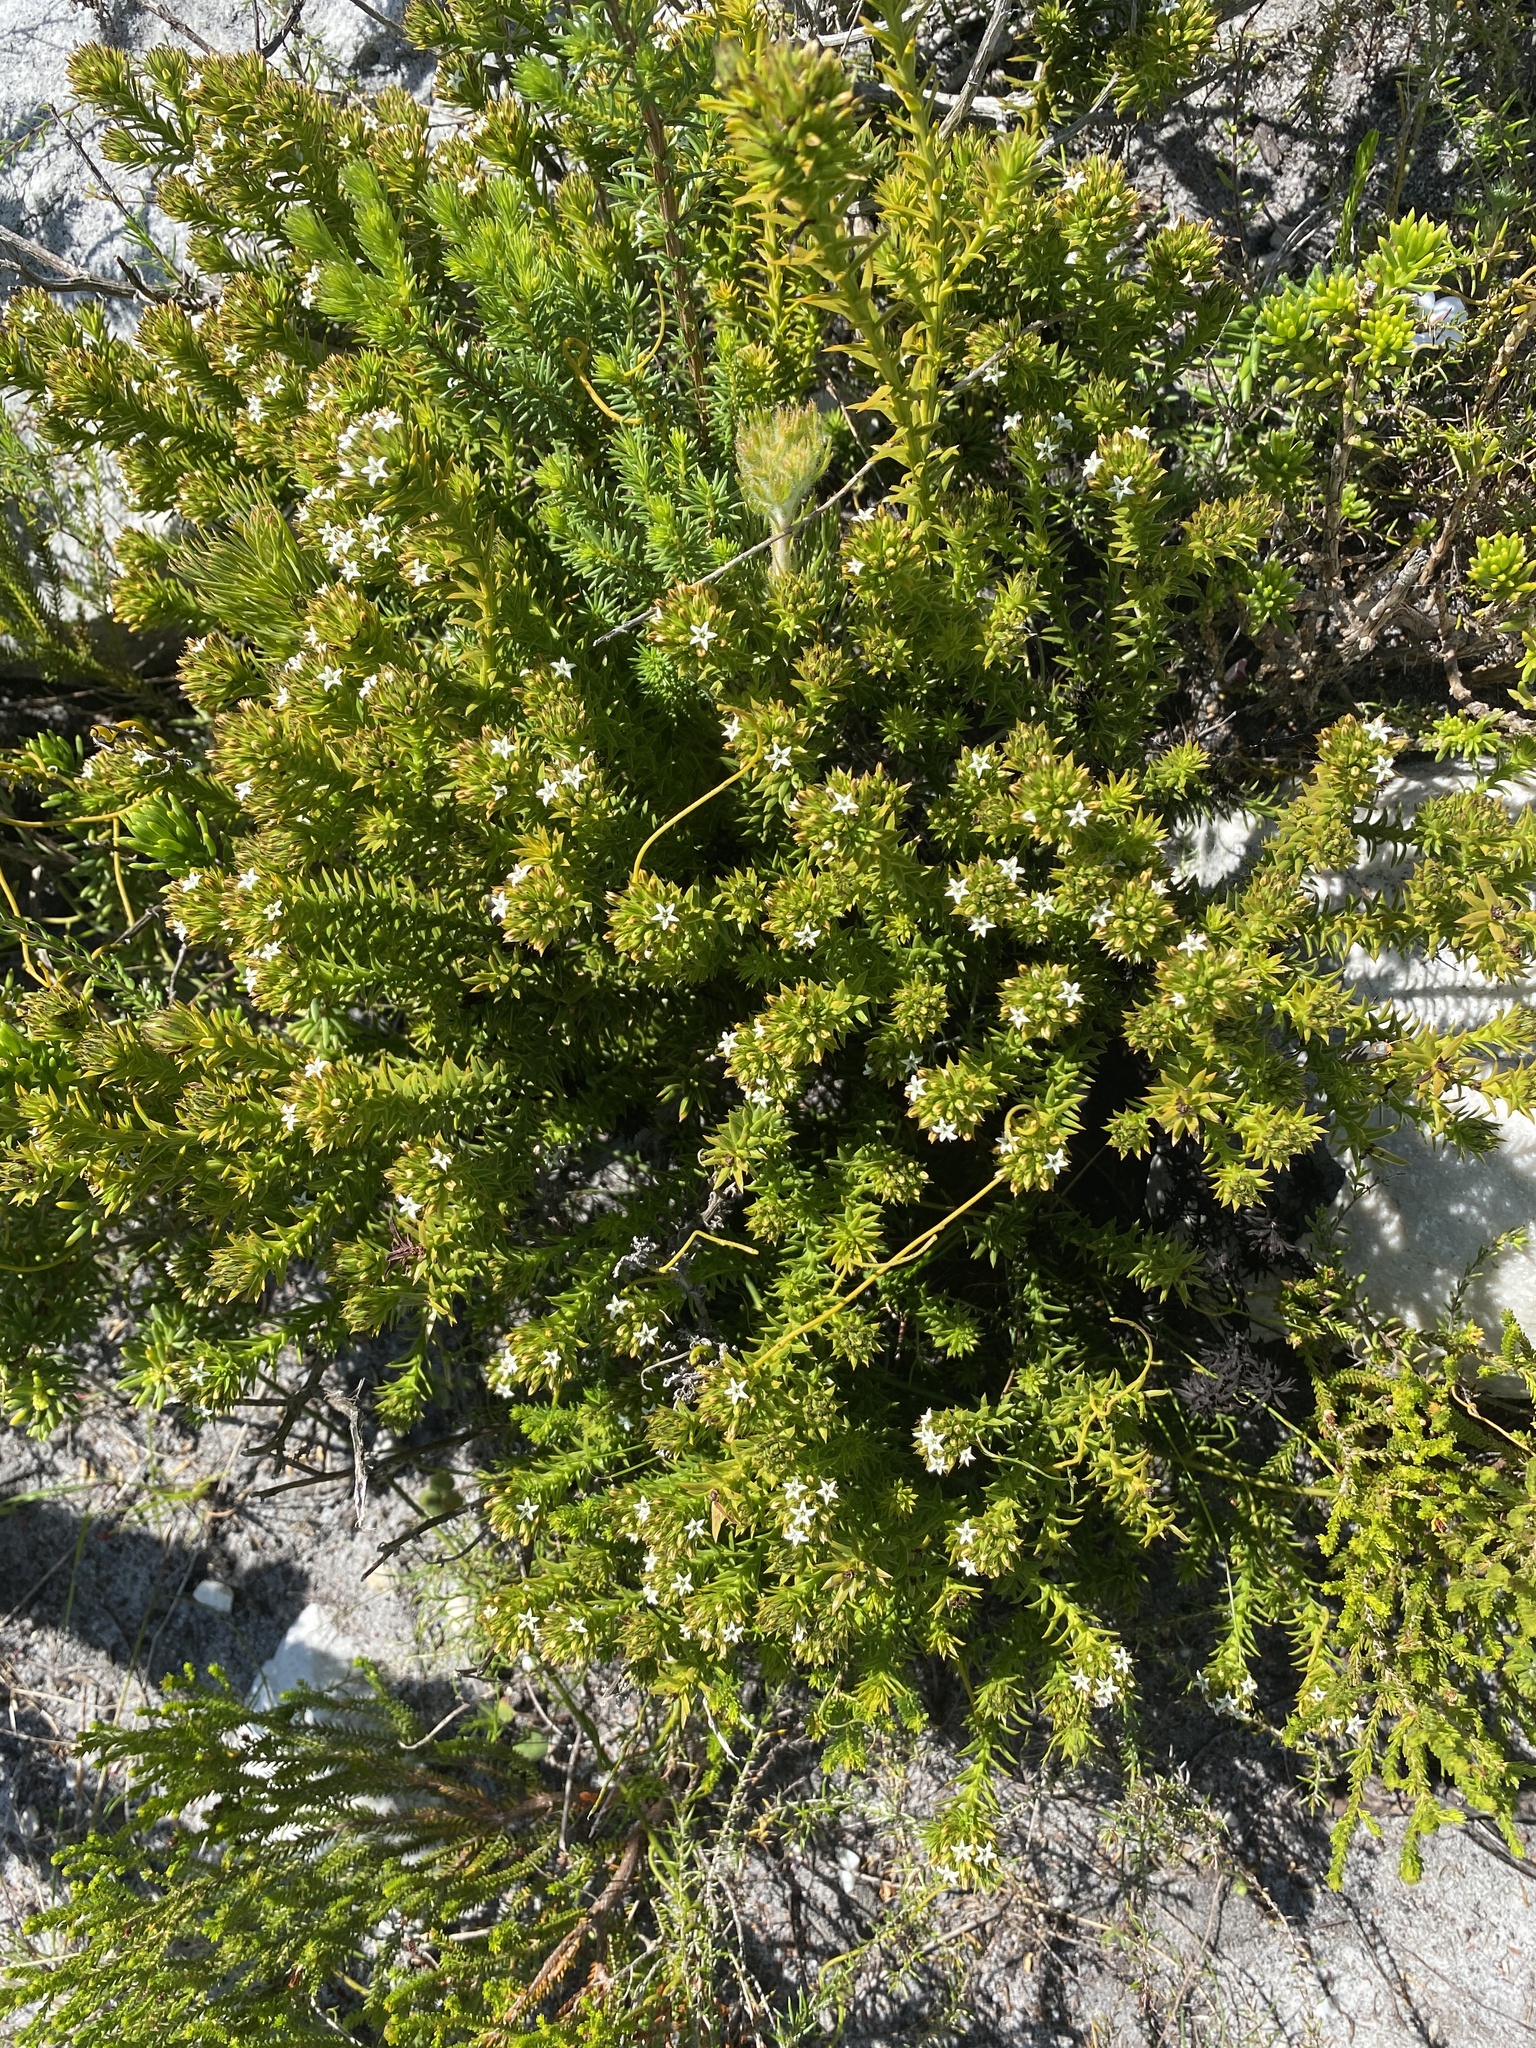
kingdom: Plantae
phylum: Tracheophyta
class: Magnoliopsida
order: Santalales
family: Thesiaceae
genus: Thesium
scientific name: Thesium viridifolium
